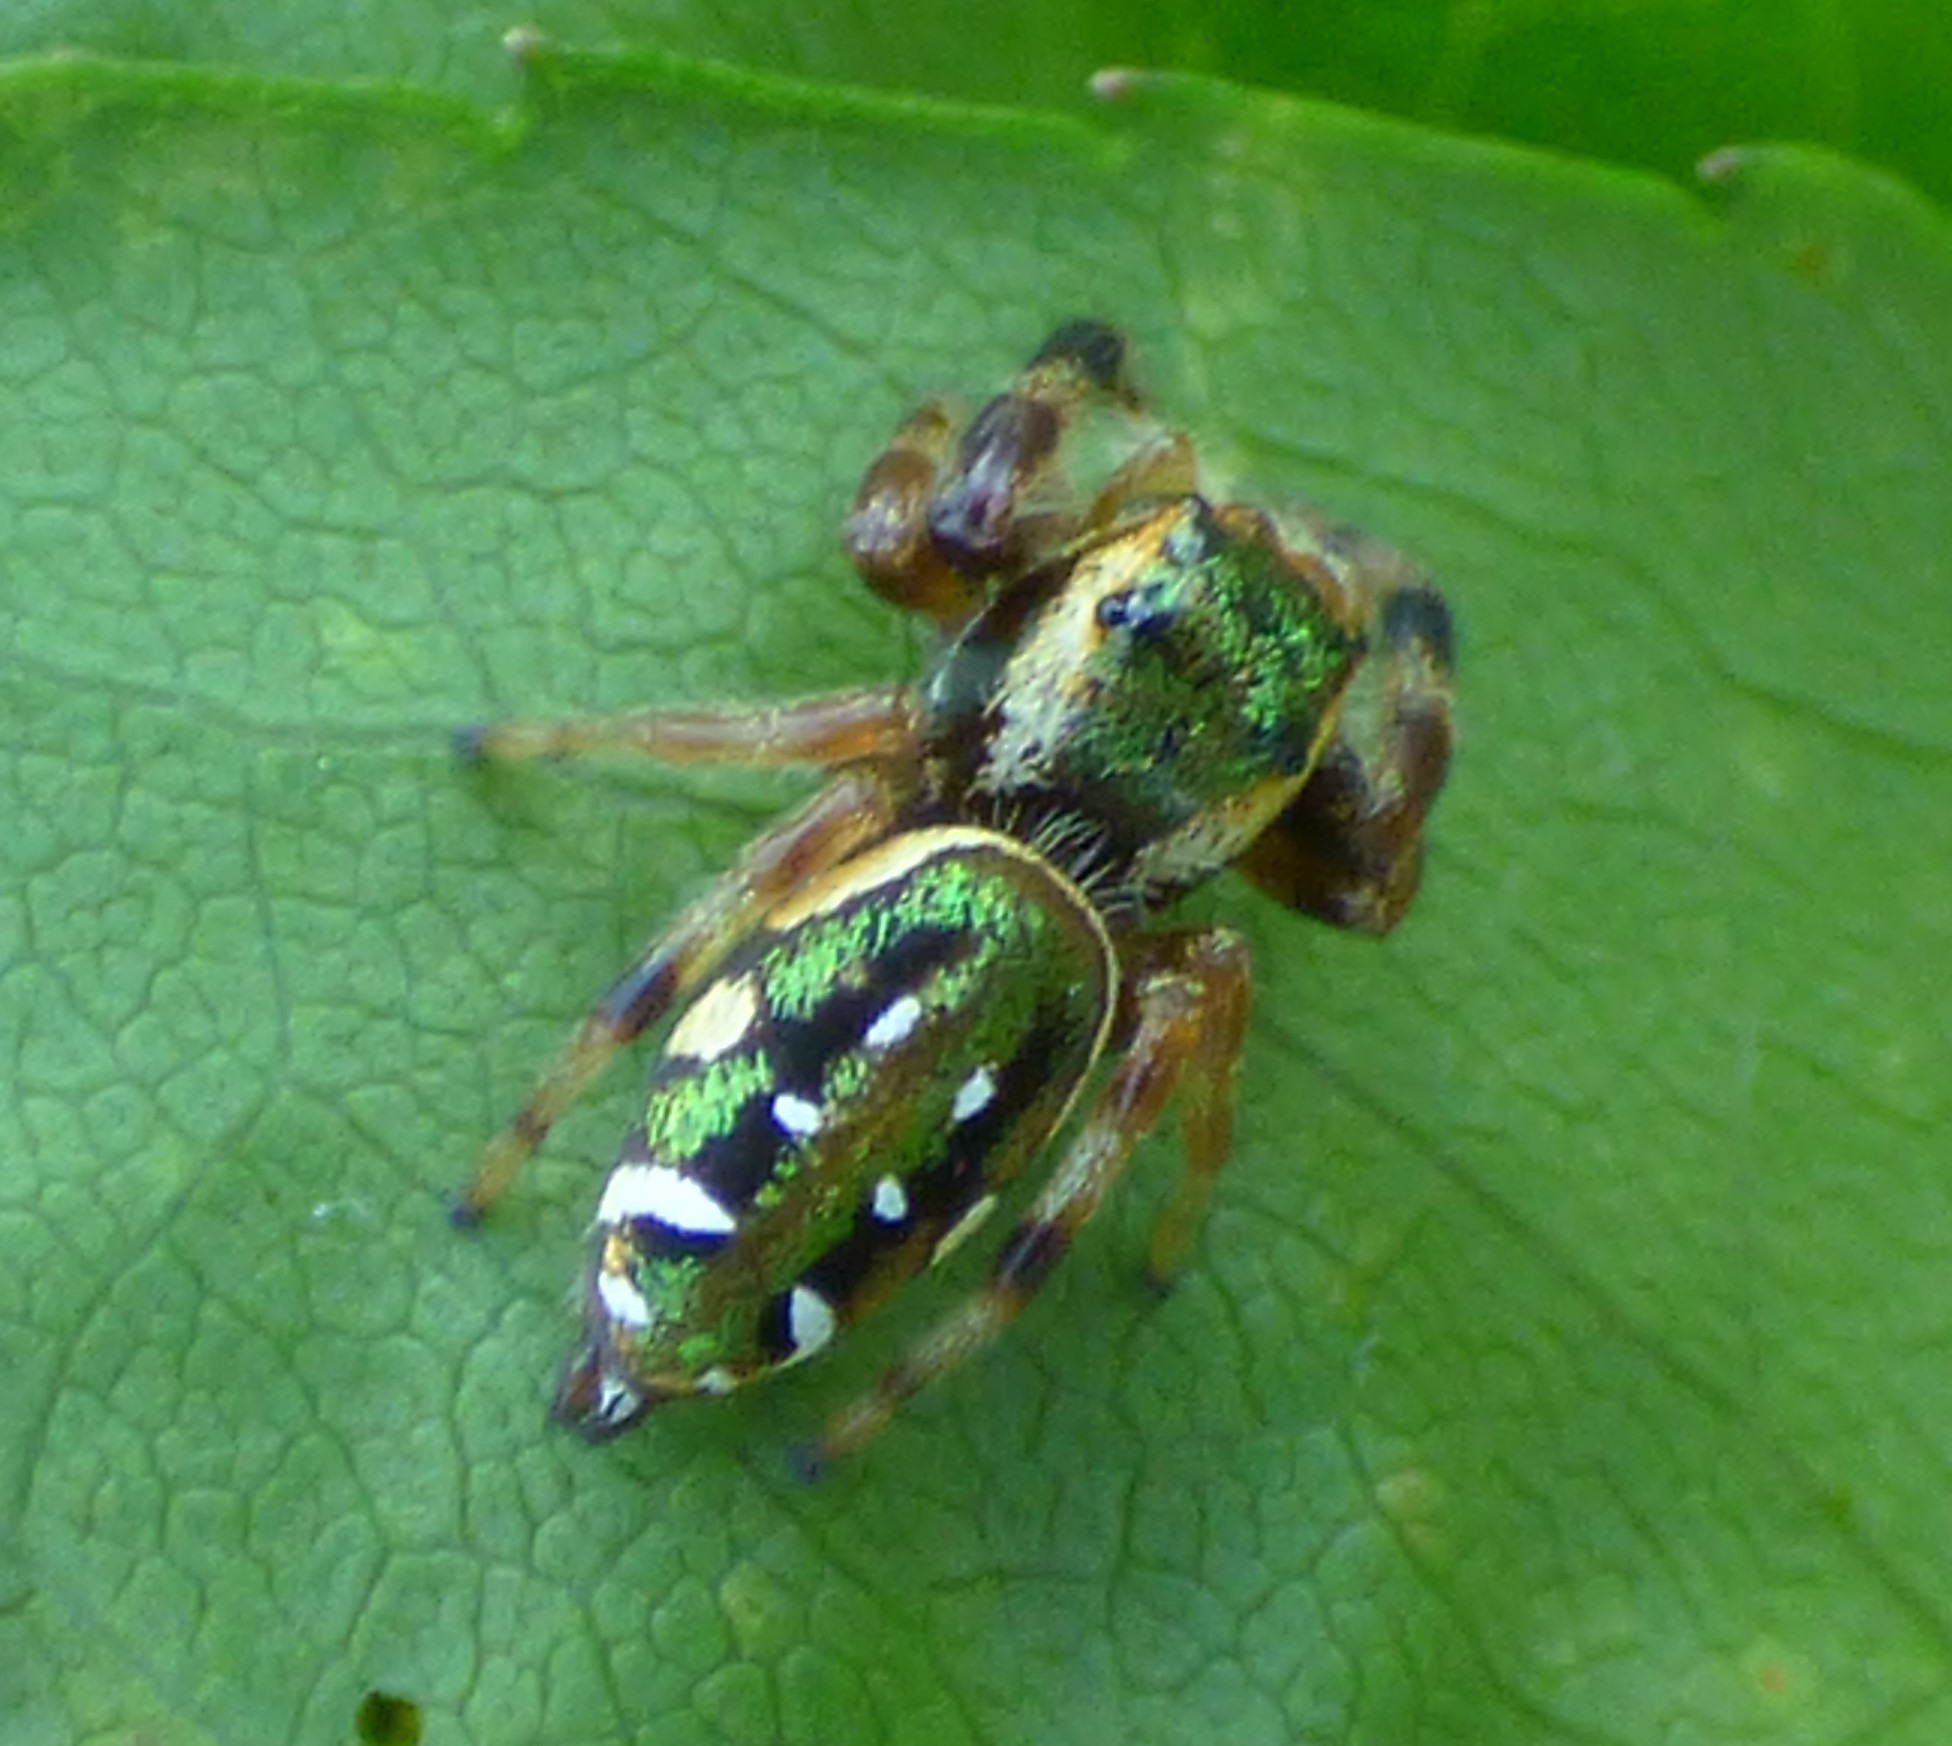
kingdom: Animalia
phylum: Arthropoda
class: Arachnida
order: Araneae
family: Salticidae
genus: Paraphidippus
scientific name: Paraphidippus aurantius
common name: Jumping spiders
